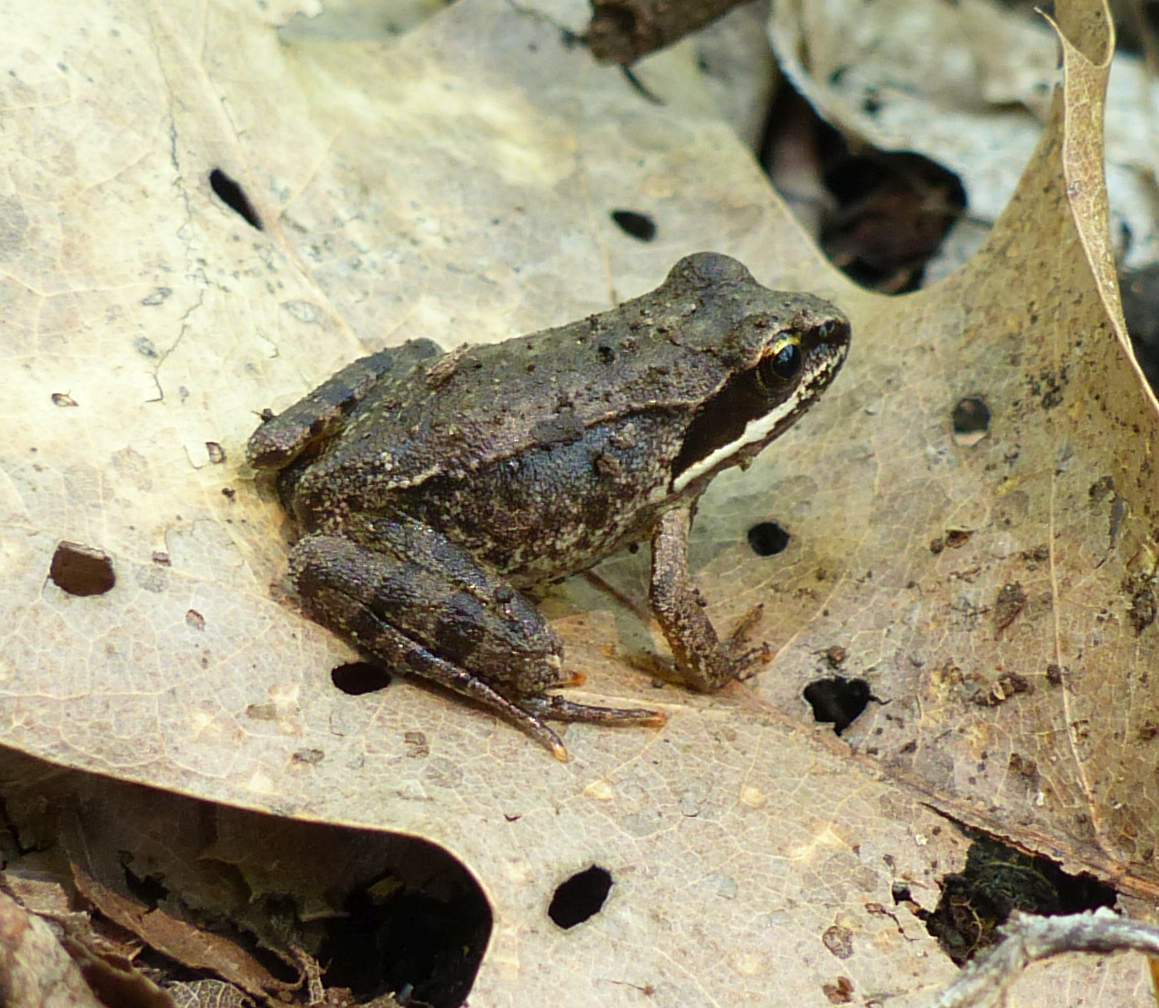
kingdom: Animalia
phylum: Chordata
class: Amphibia
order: Anura
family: Ranidae
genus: Lithobates
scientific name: Lithobates sylvaticus
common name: Wood frog
